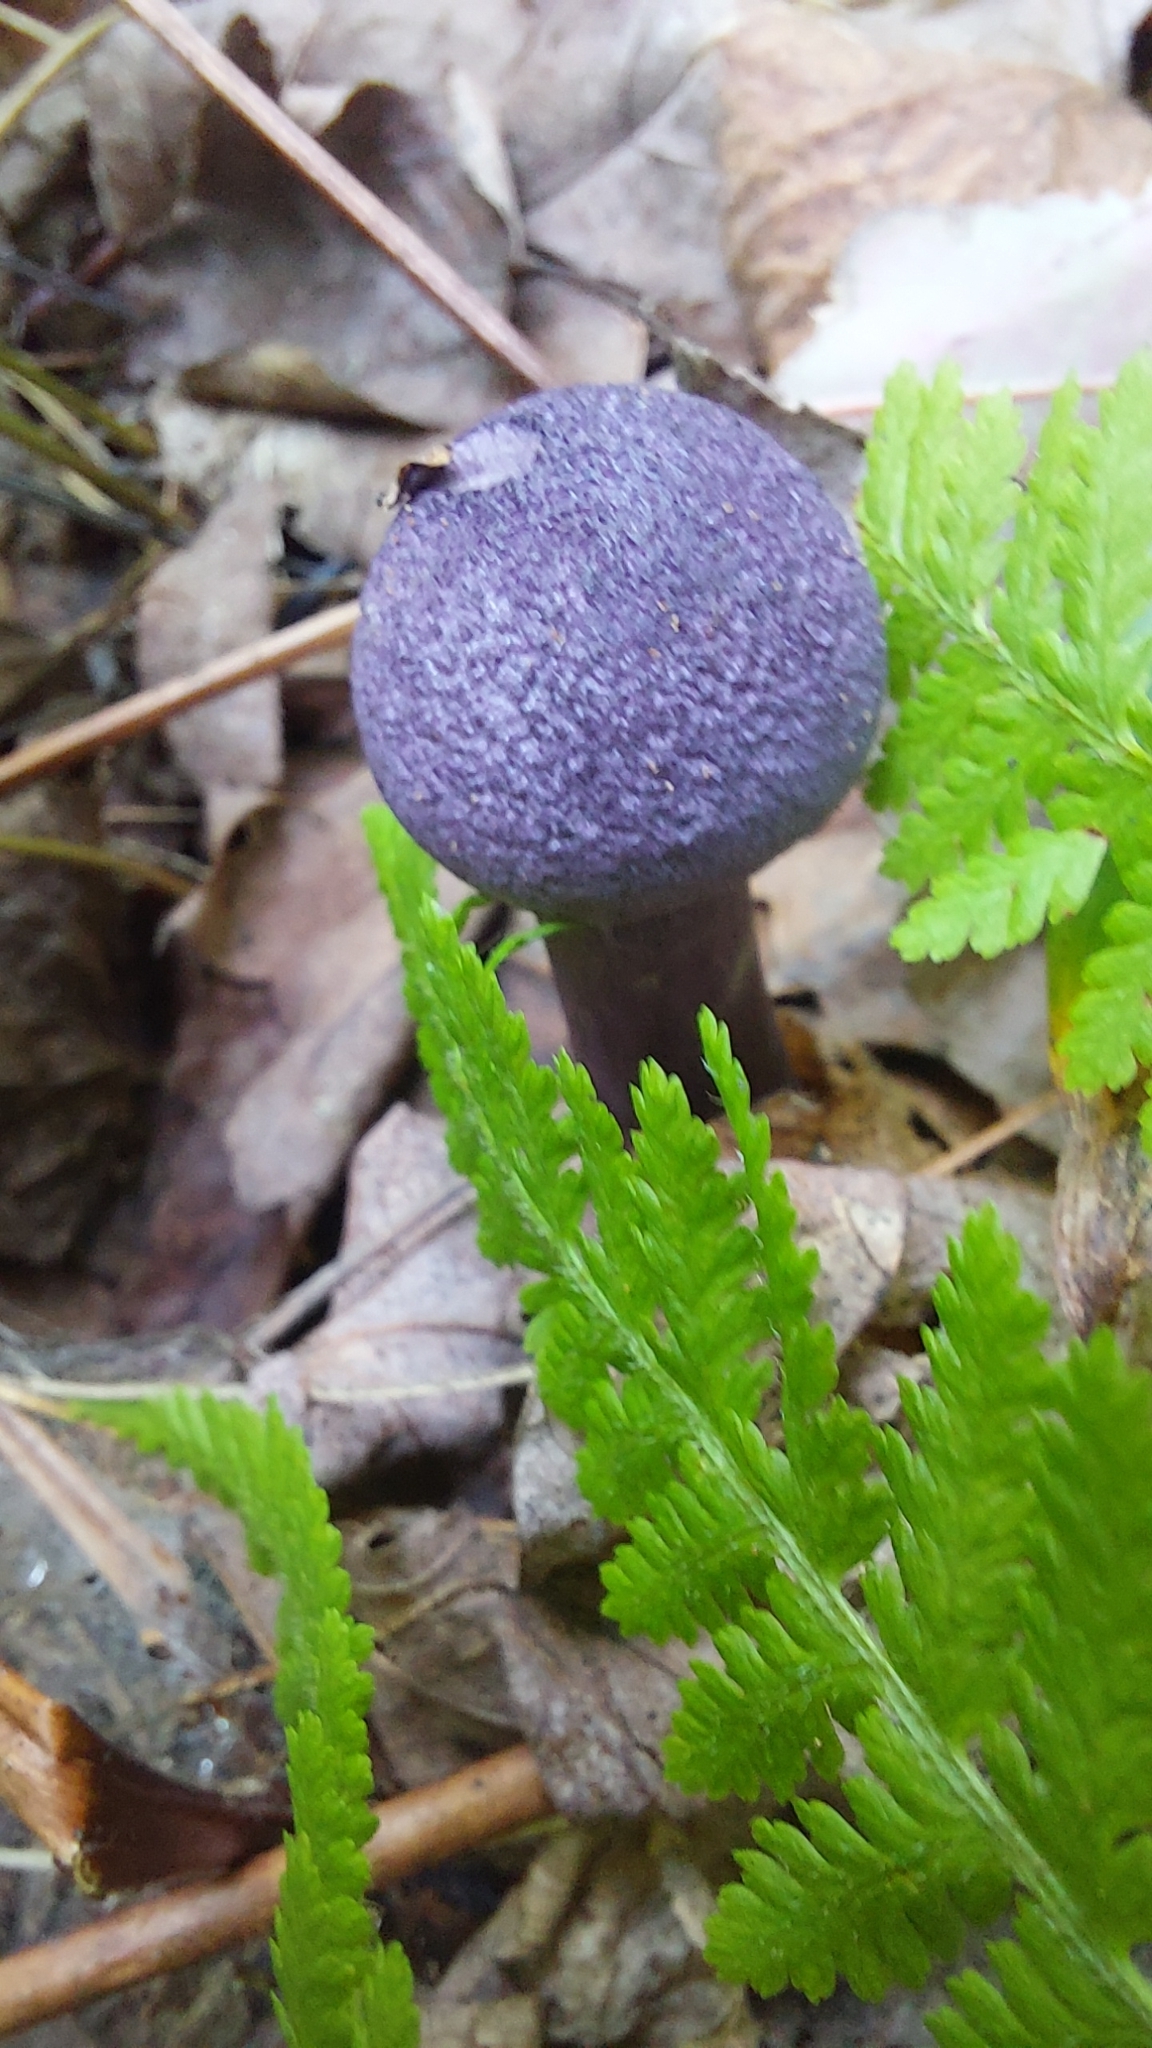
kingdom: Fungi
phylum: Basidiomycota
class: Agaricomycetes
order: Agaricales
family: Cortinariaceae
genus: Cortinarius
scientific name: Cortinarius violaceus
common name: Violet webcap
